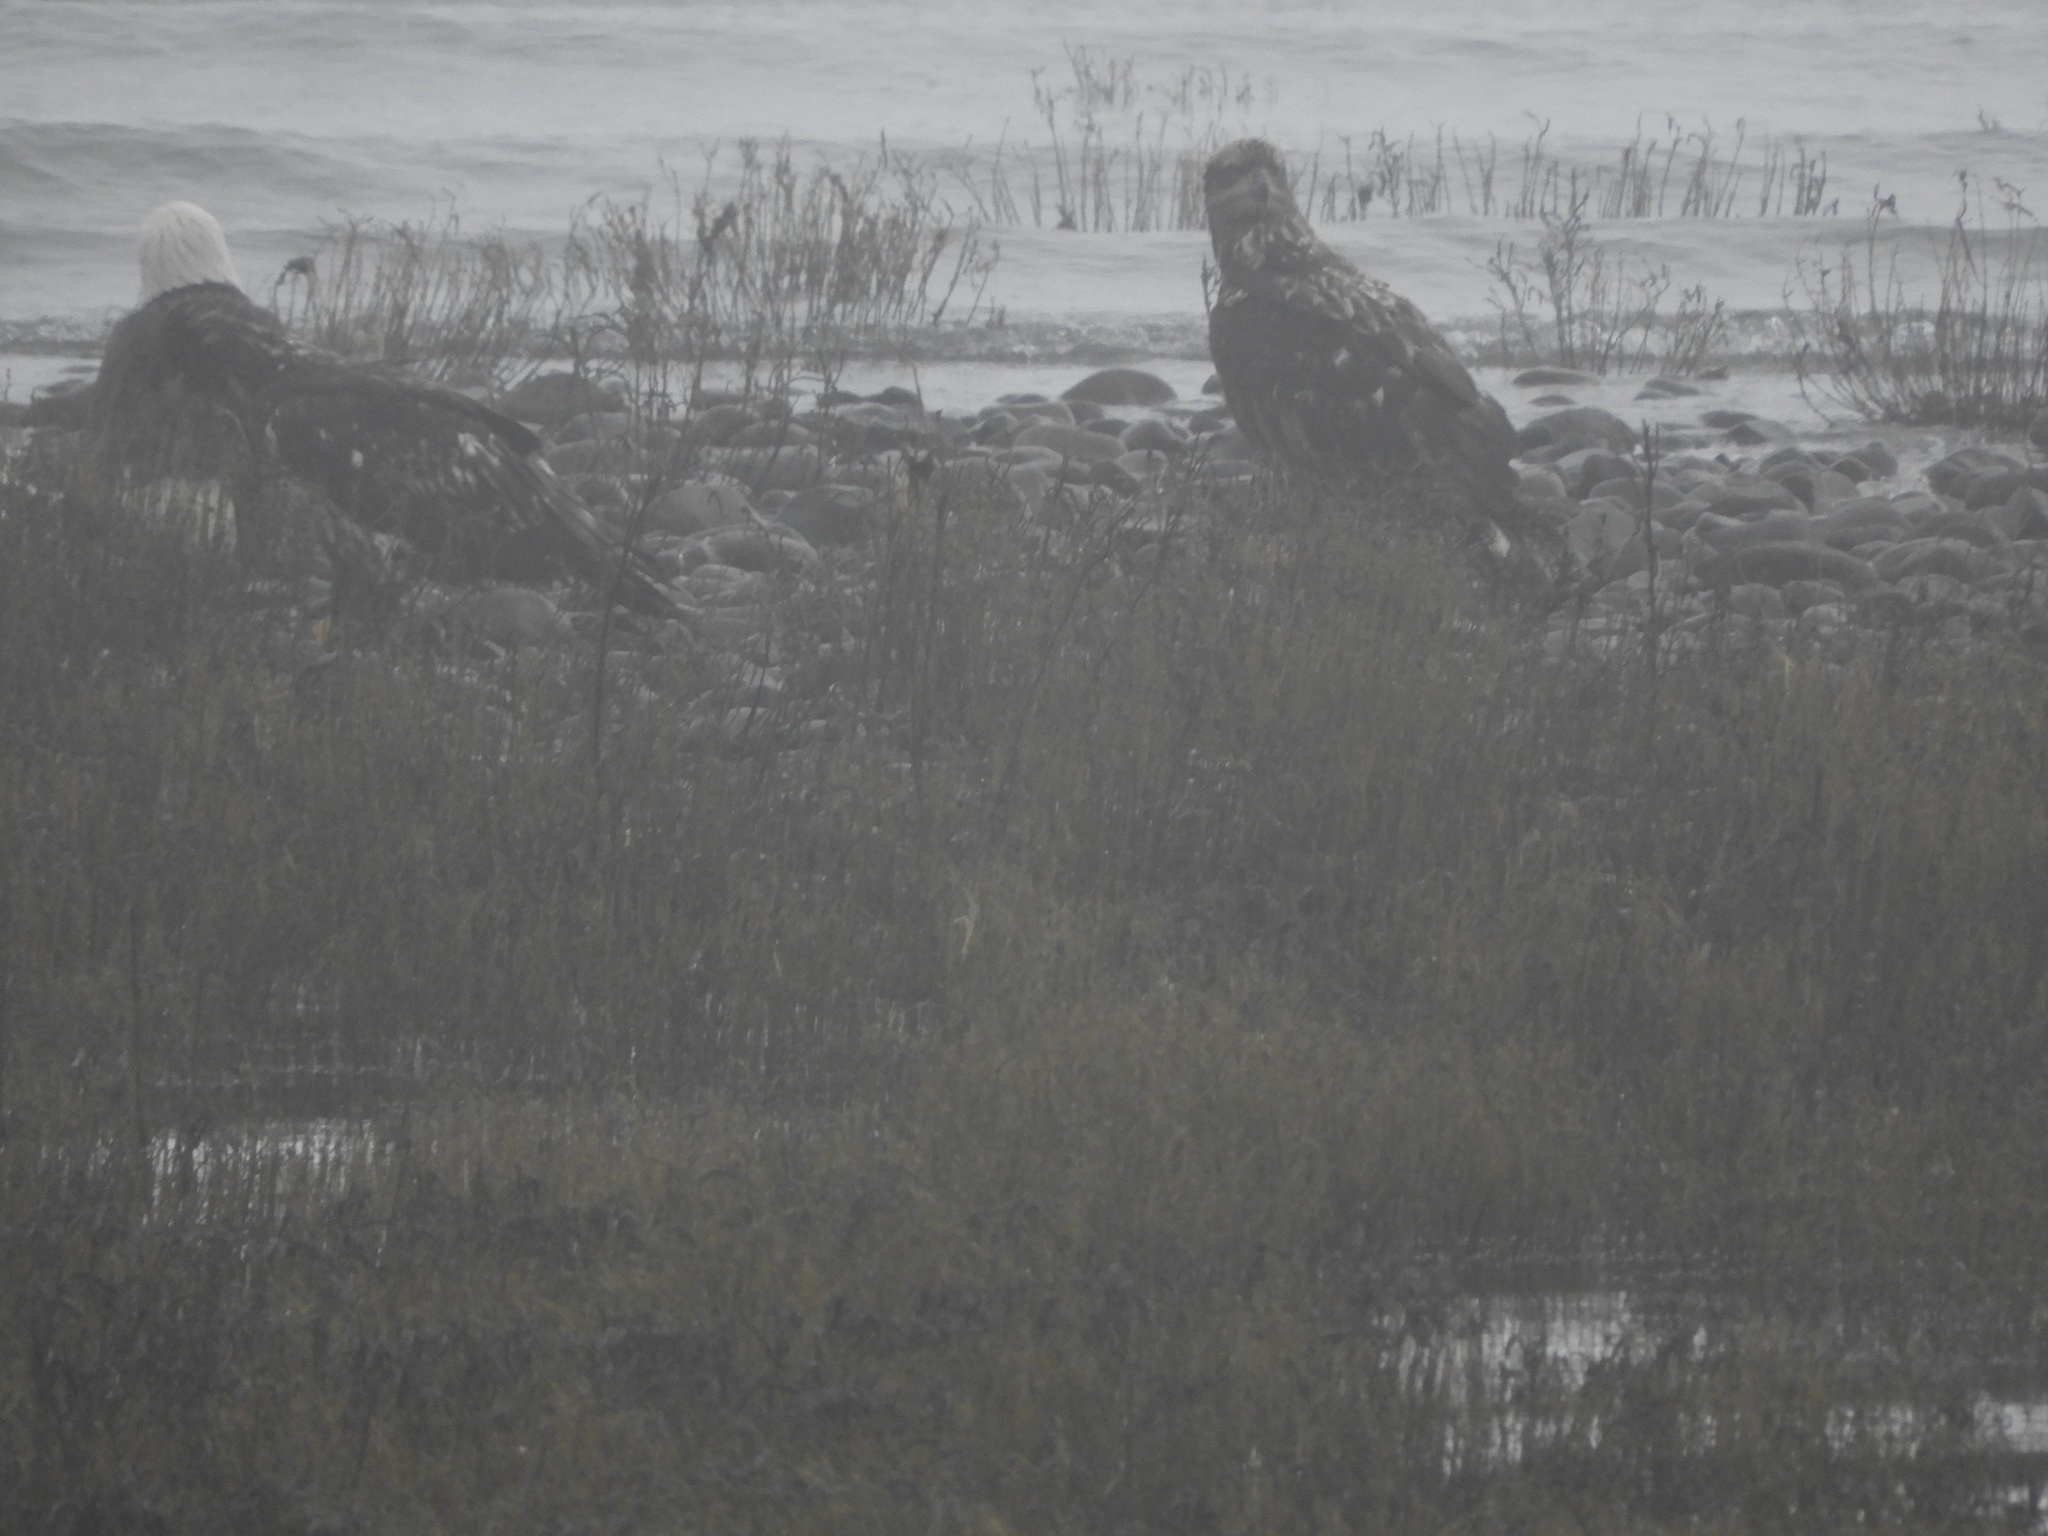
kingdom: Animalia
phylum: Chordata
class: Aves
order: Accipitriformes
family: Accipitridae
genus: Haliaeetus
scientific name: Haliaeetus leucocephalus
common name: Bald eagle
